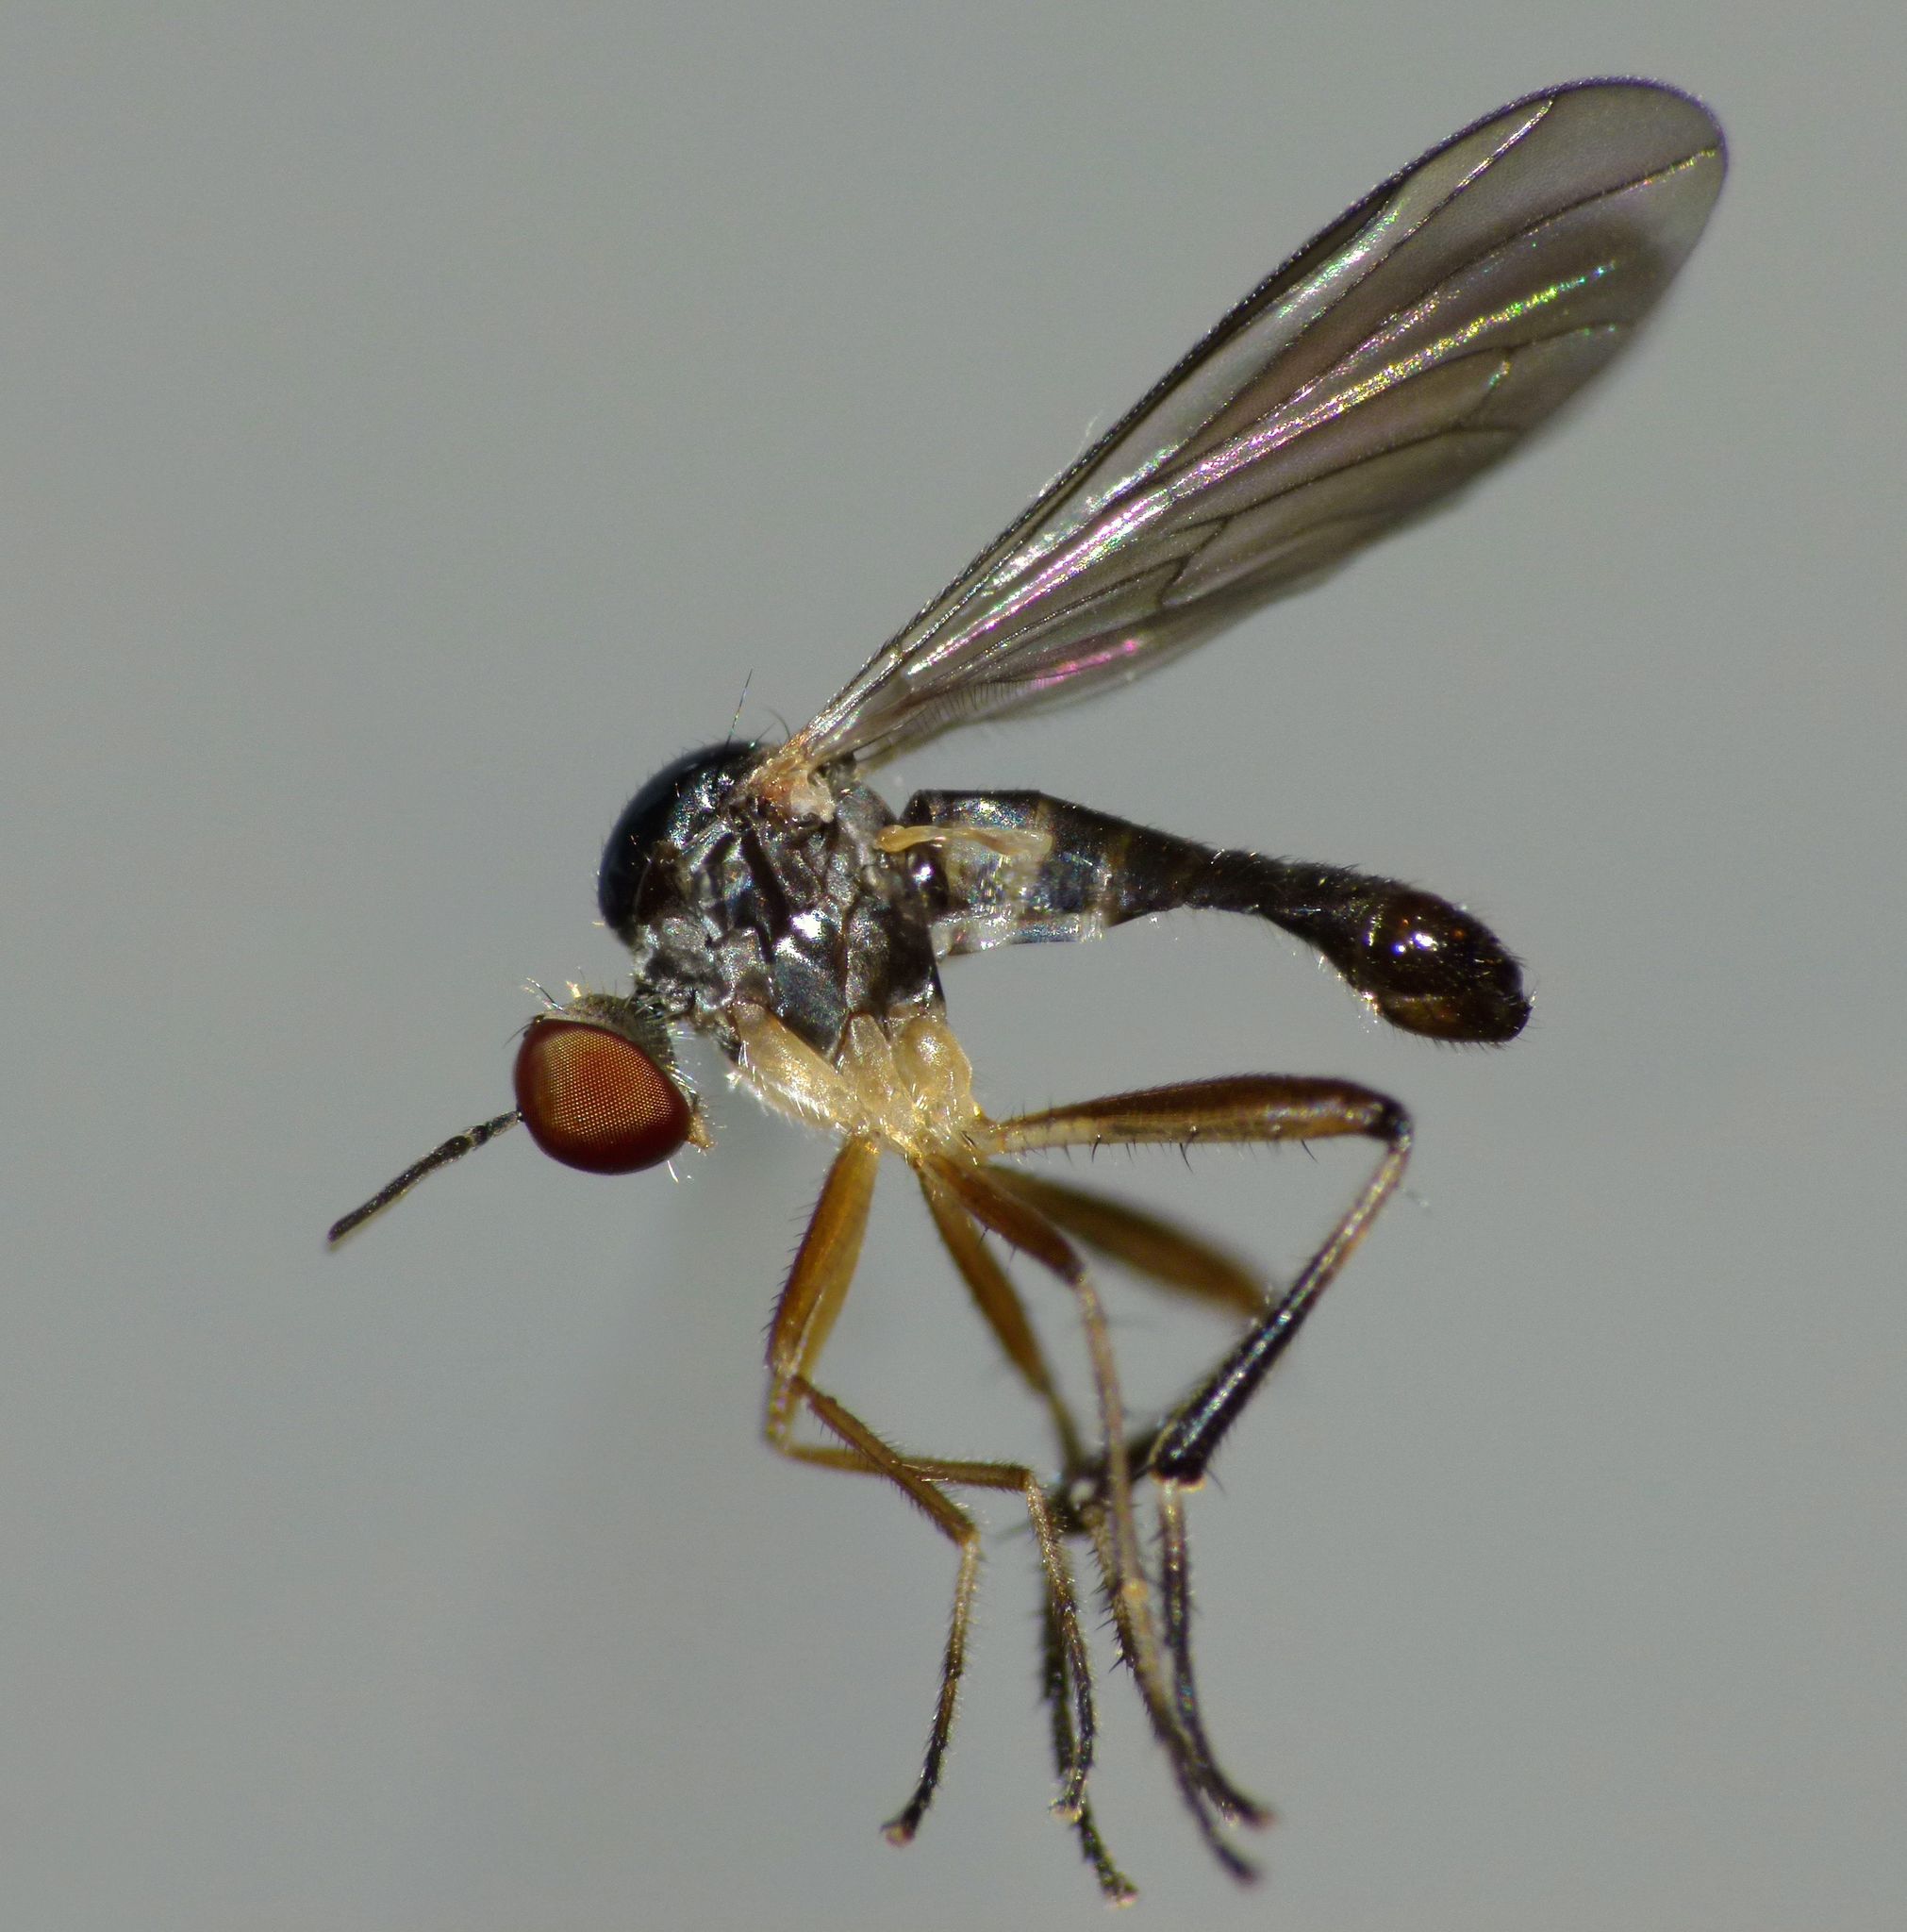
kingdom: Animalia
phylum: Arthropoda
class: Insecta
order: Diptera
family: Hybotidae
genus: Oropezella
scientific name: Oropezella tanycera
